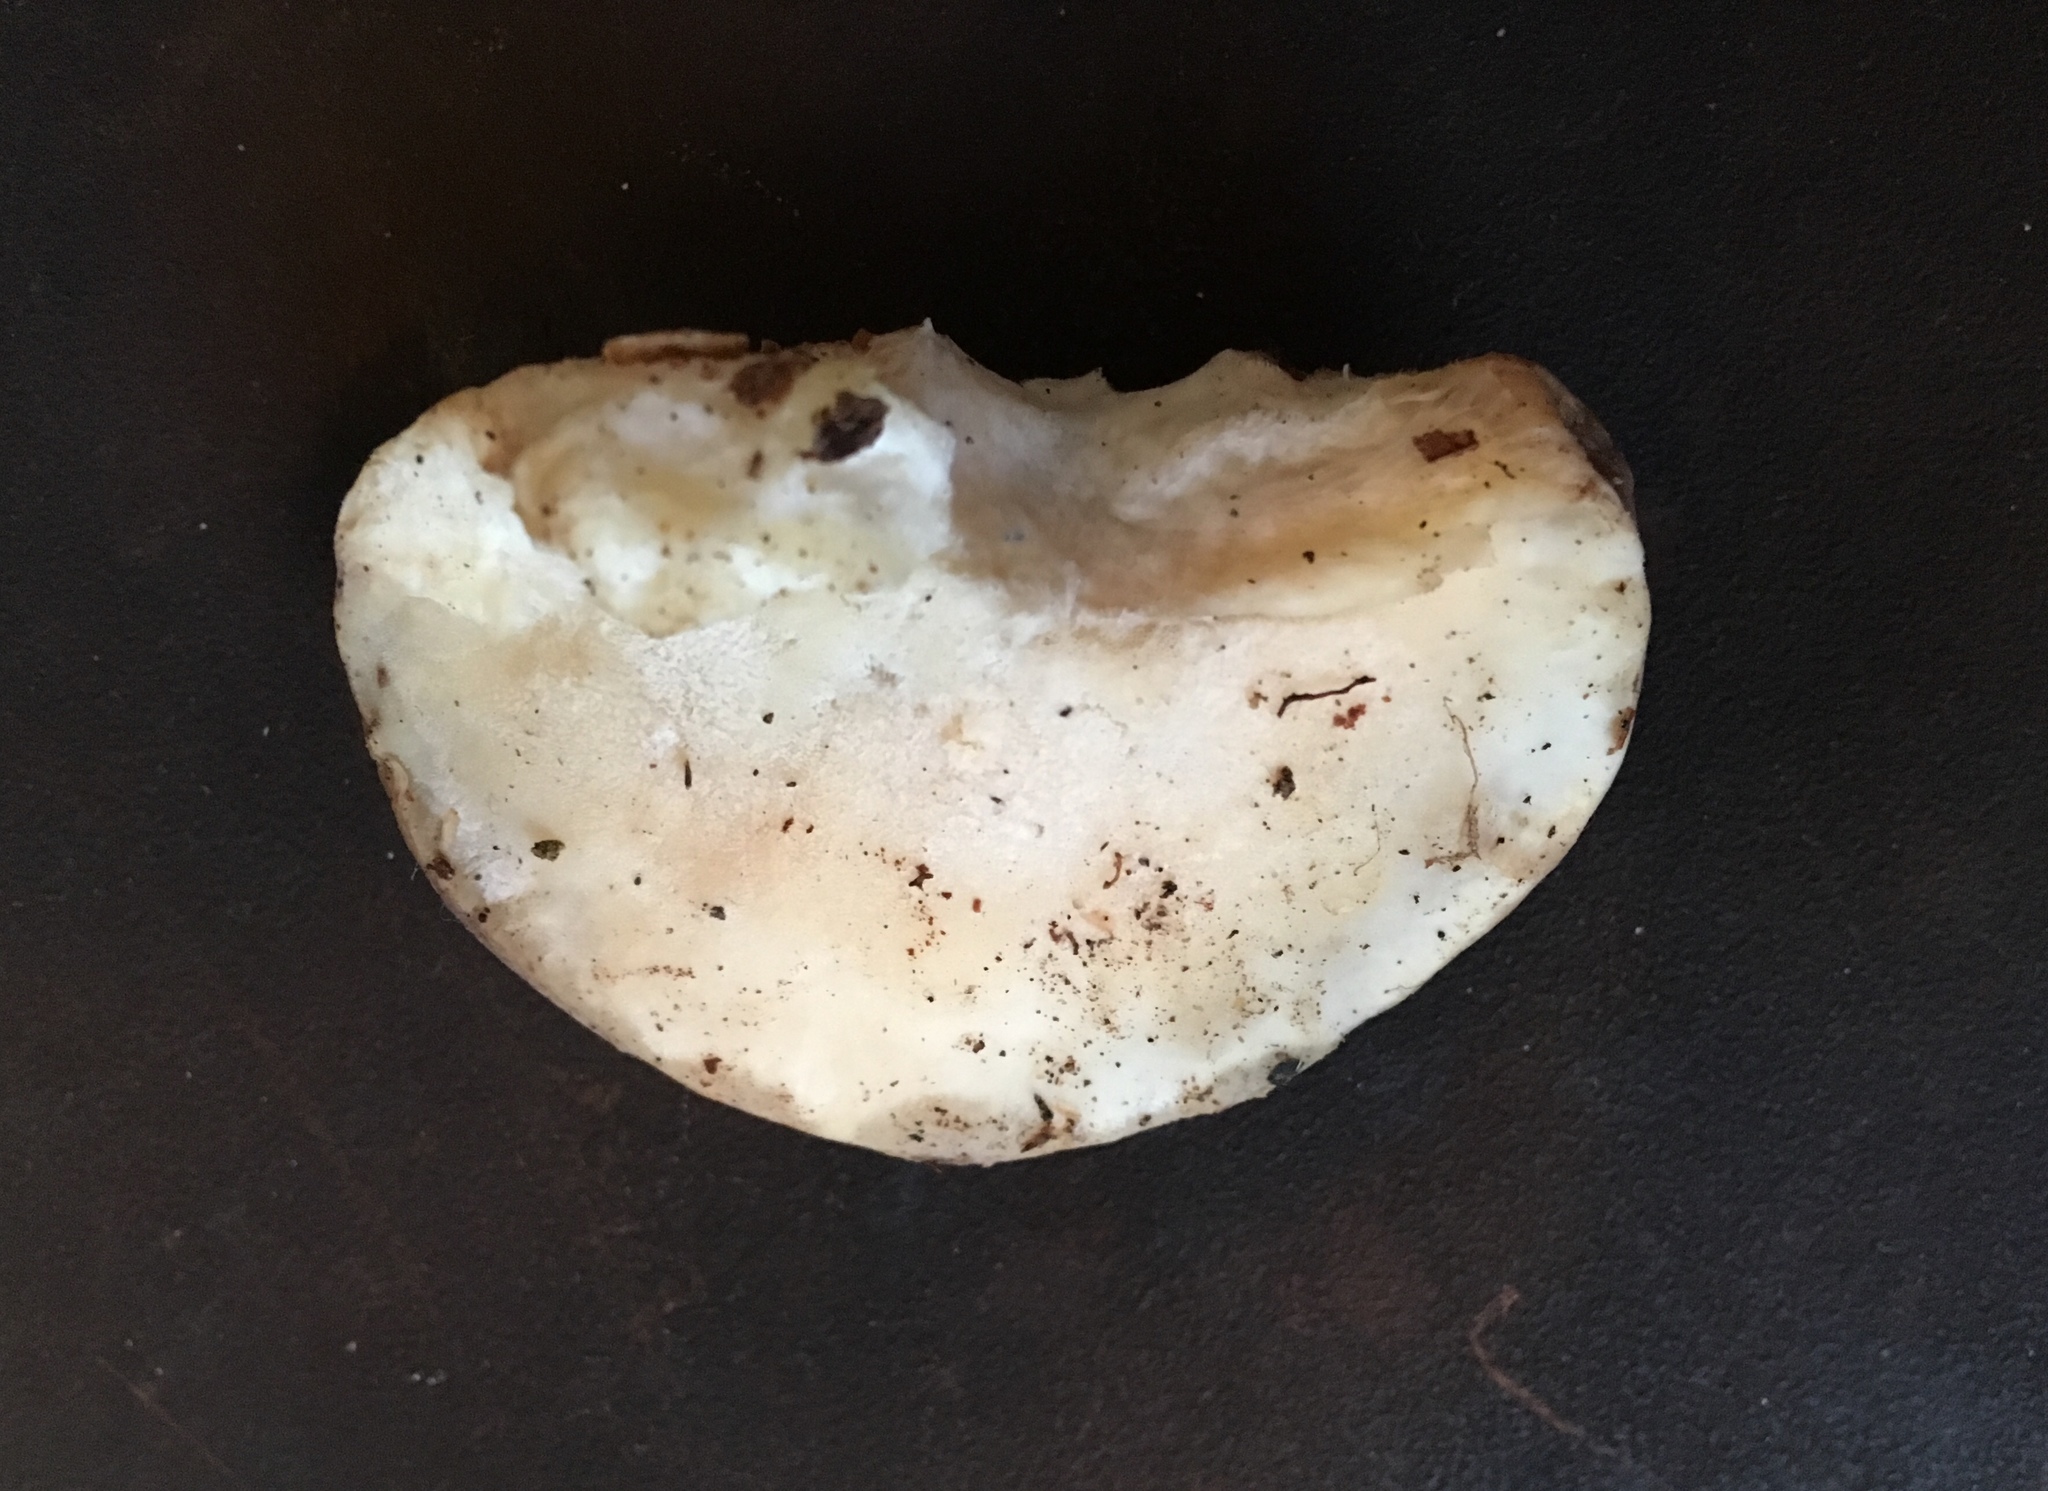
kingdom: Fungi
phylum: Basidiomycota
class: Agaricomycetes
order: Polyporales
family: Incrustoporiaceae
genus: Tyromyces
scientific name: Tyromyces fumidiceps
